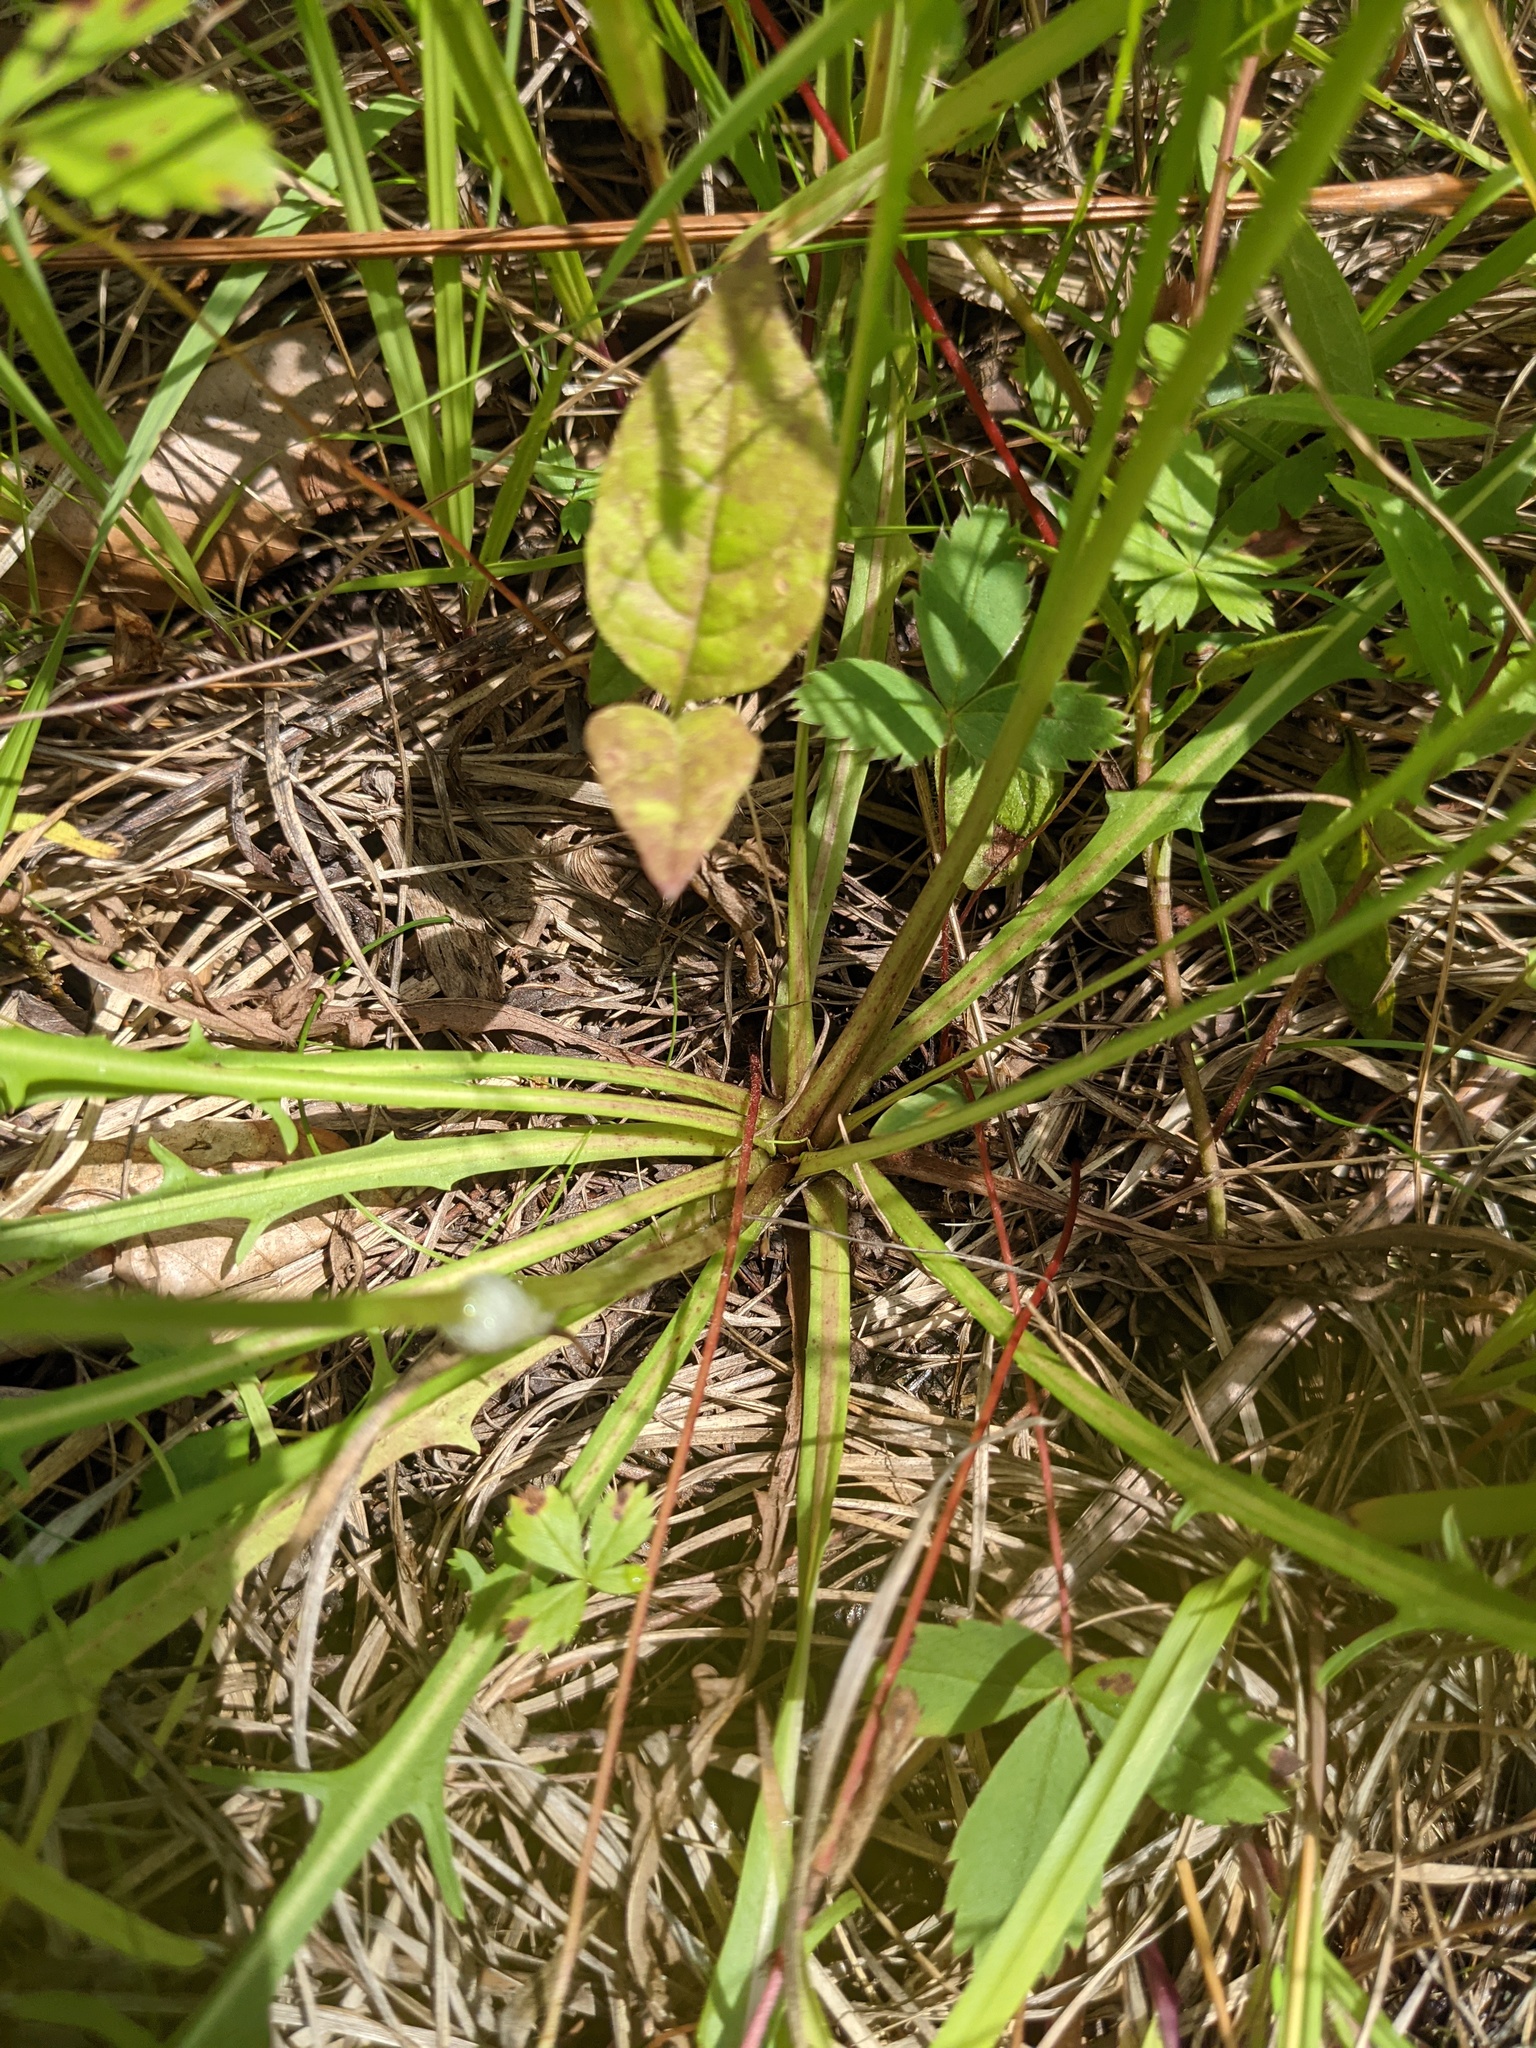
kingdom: Plantae
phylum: Tracheophyta
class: Magnoliopsida
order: Asterales
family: Asteraceae
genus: Scorzoneroides
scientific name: Scorzoneroides autumnalis
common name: Autumn hawkbit
